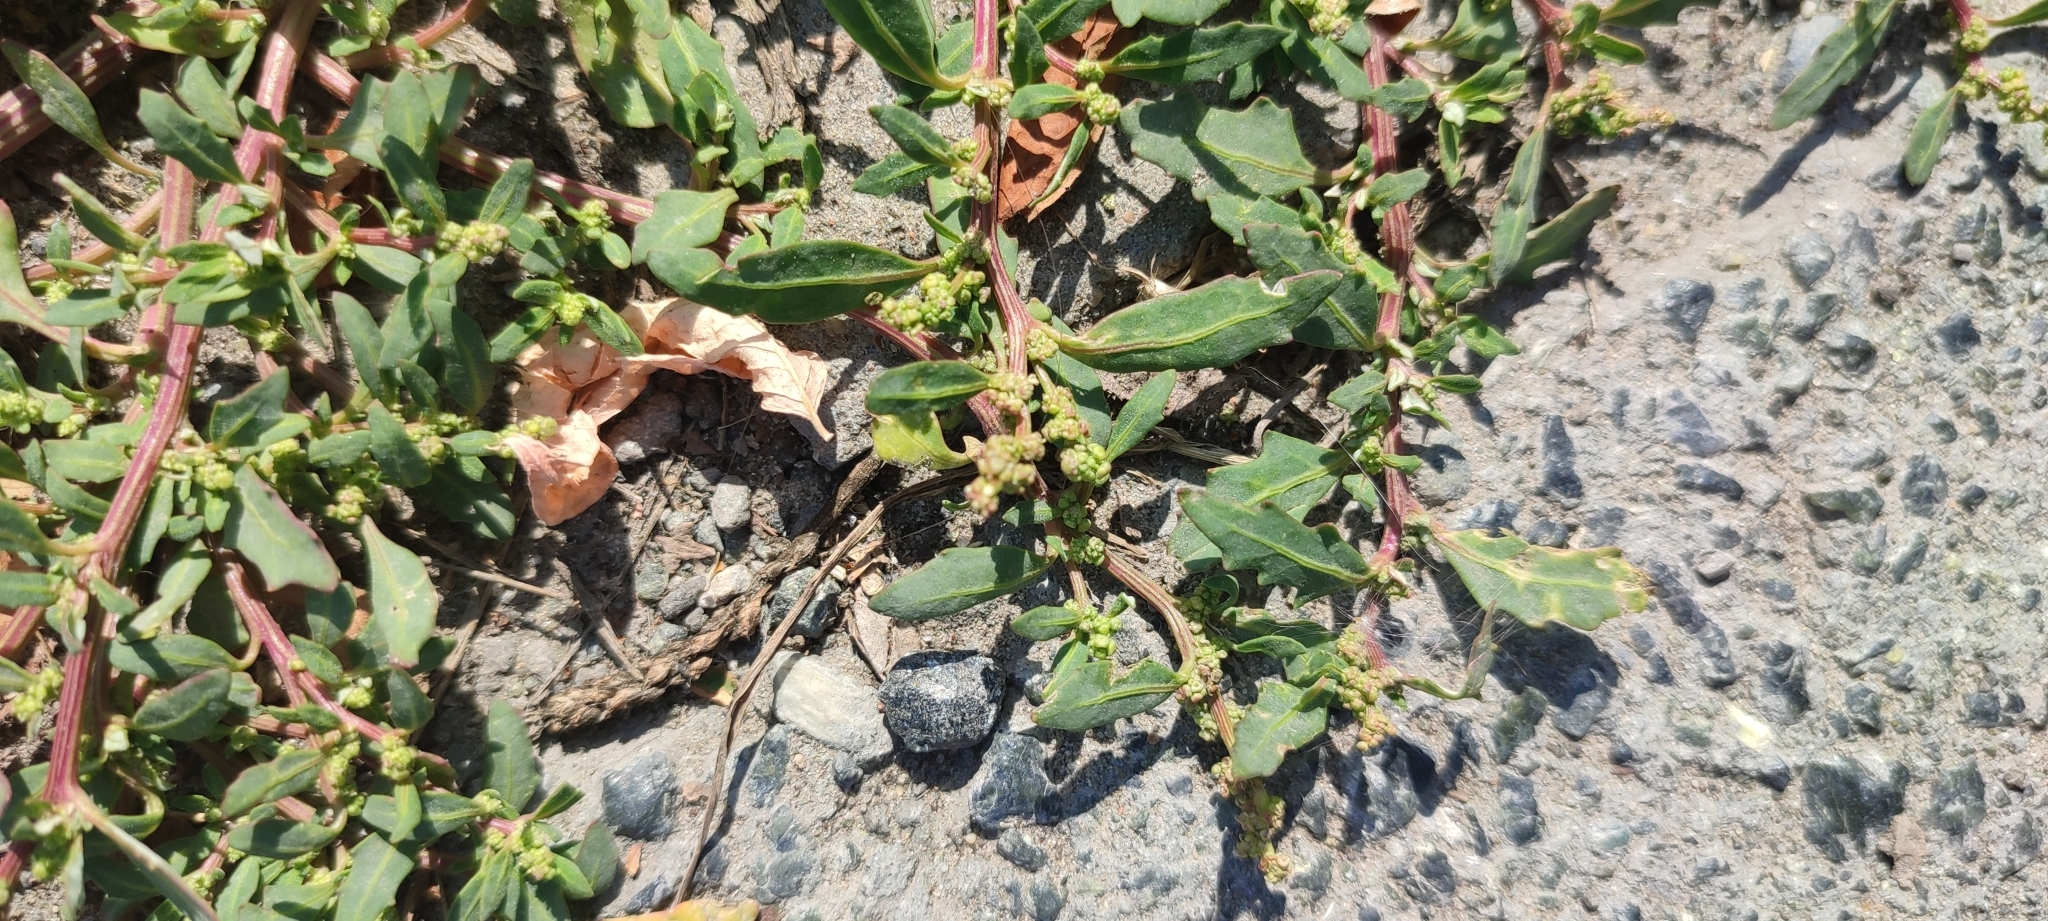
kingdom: Plantae
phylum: Tracheophyta
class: Magnoliopsida
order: Caryophyllales
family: Amaranthaceae
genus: Oxybasis
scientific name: Oxybasis glauca
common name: Glaucous goosefoot
